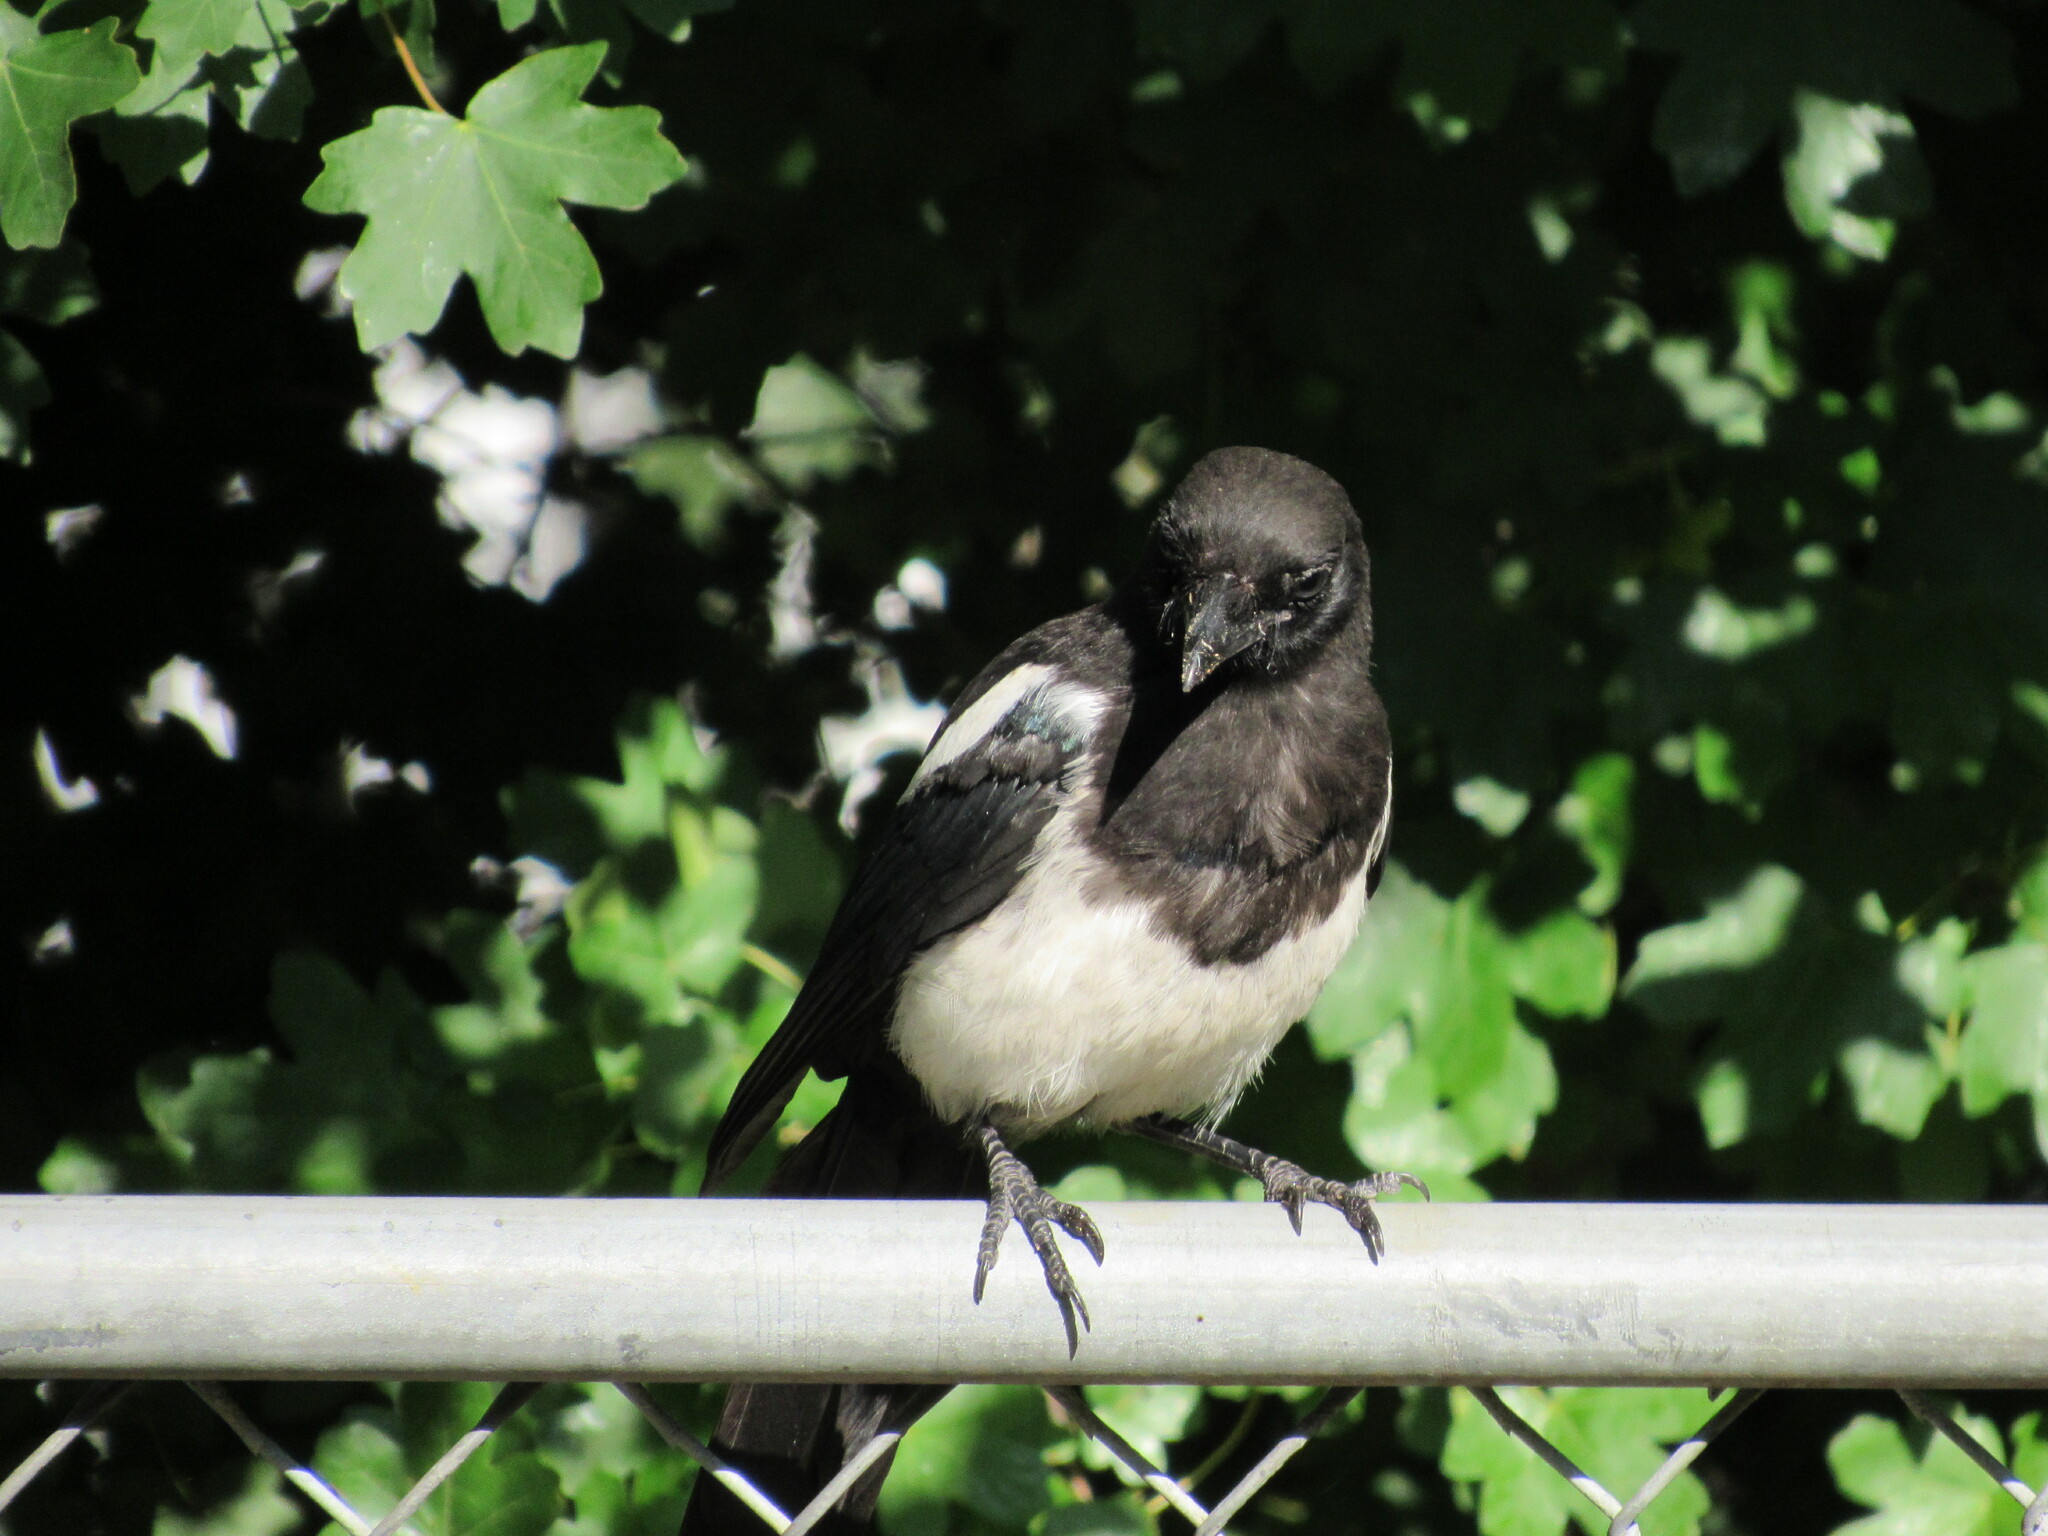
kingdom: Animalia
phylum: Chordata
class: Aves
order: Passeriformes
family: Corvidae
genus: Pica
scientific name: Pica hudsonia
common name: Black-billed magpie
